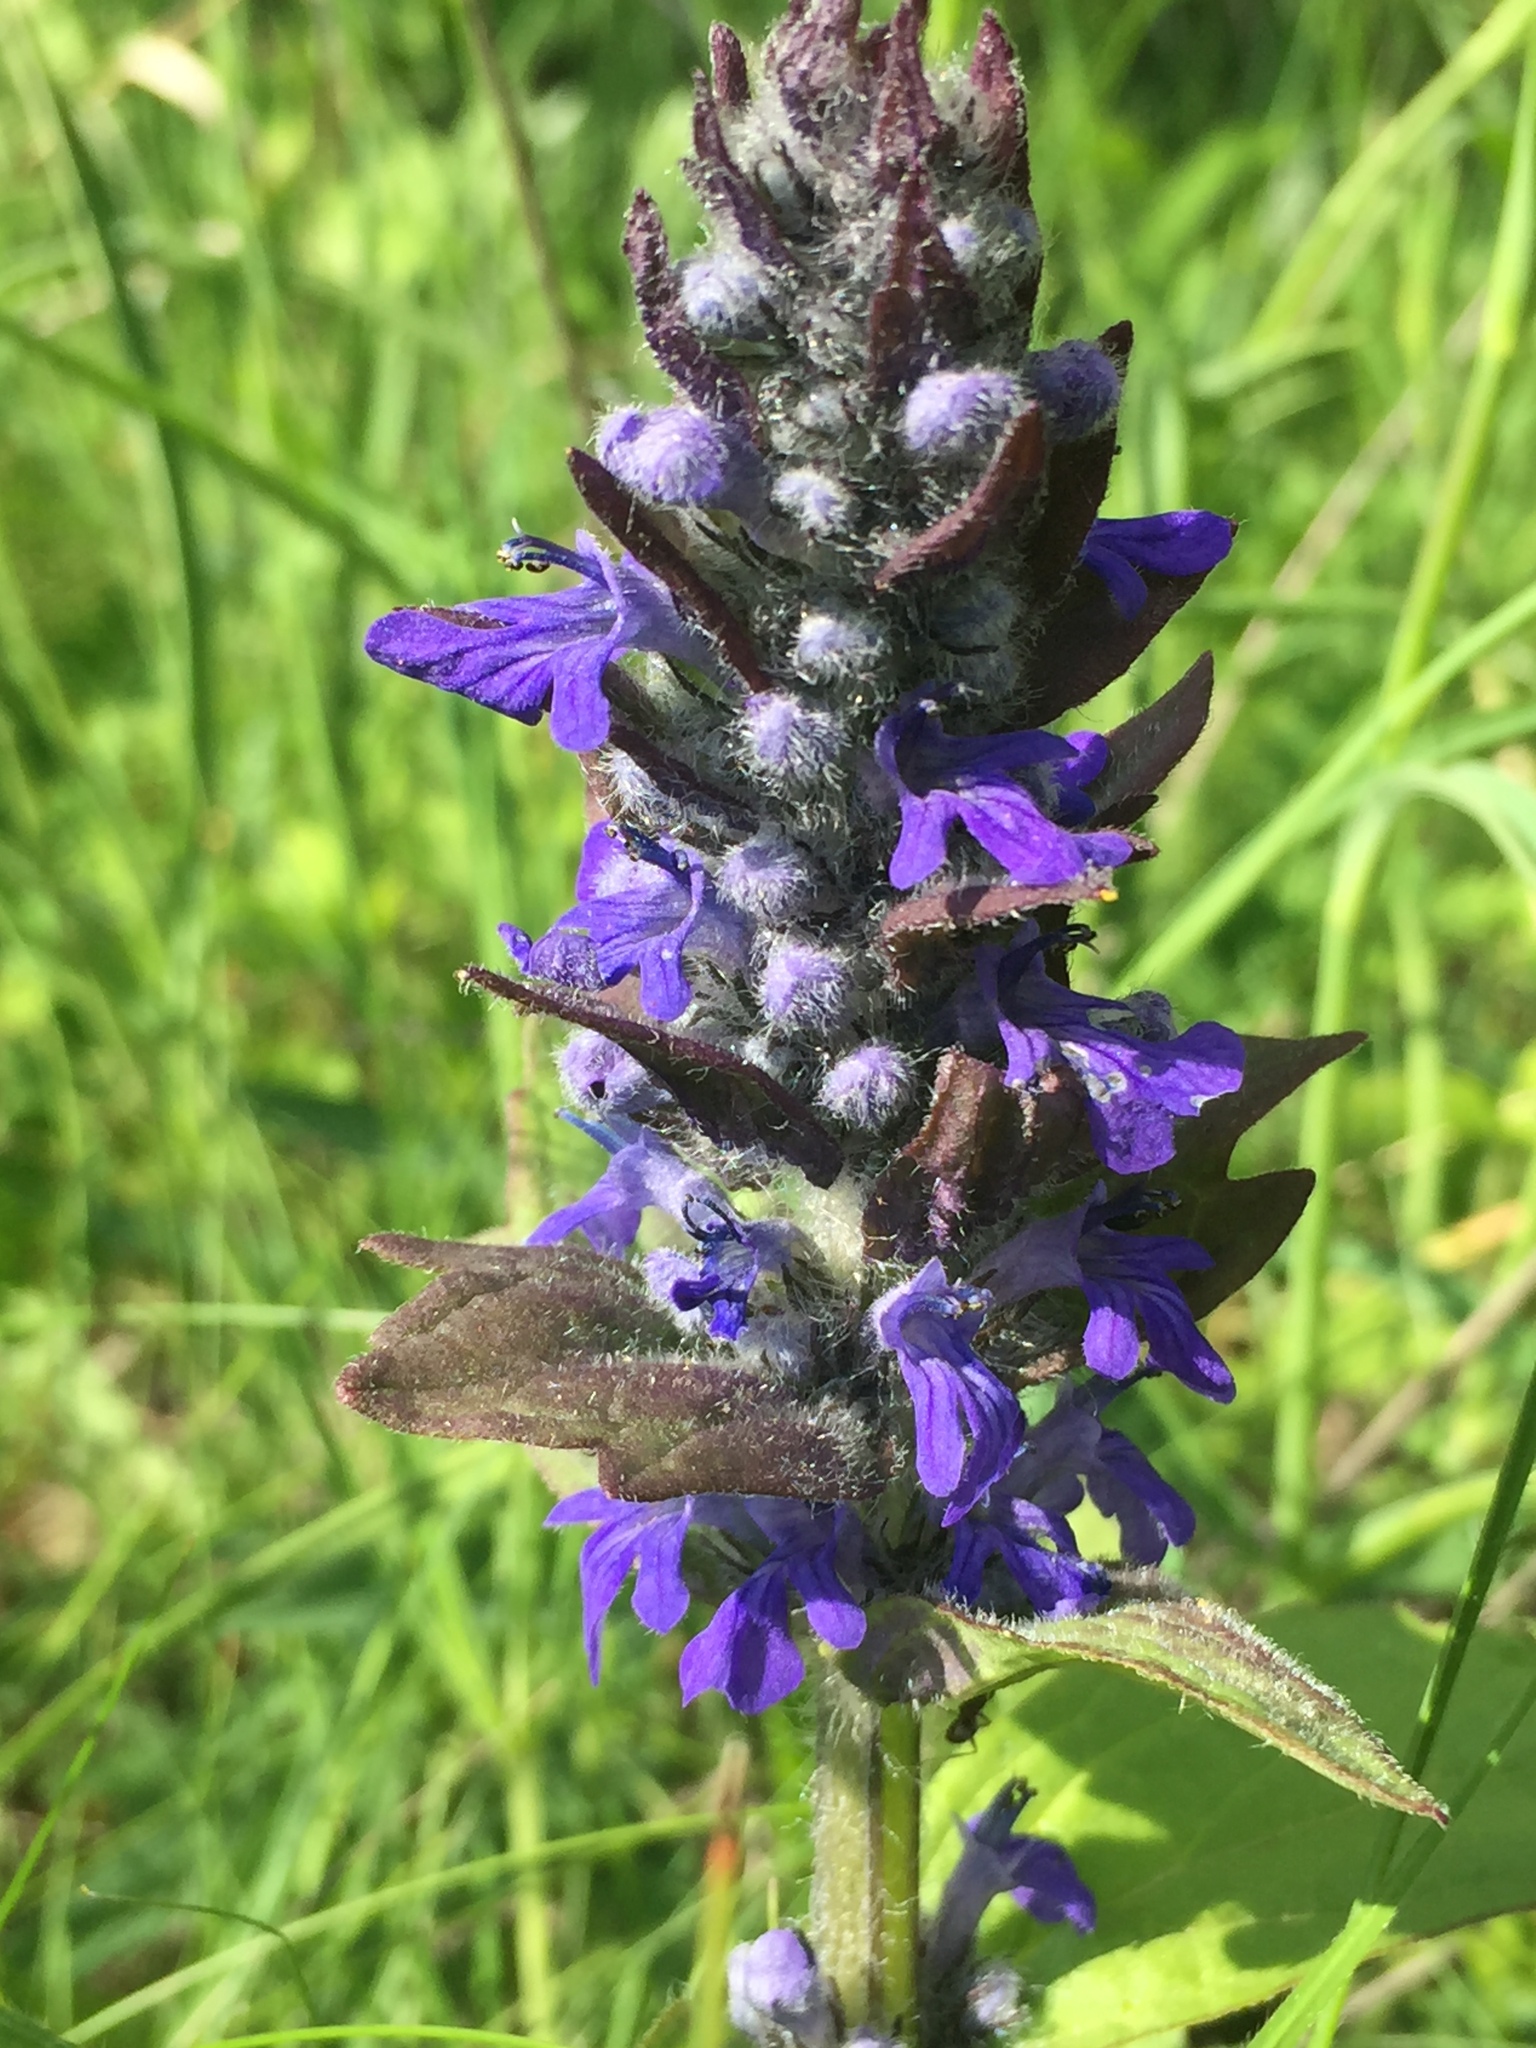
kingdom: Plantae
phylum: Tracheophyta
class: Magnoliopsida
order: Lamiales
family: Lamiaceae
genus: Ajuga
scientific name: Ajuga genevensis
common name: Blue bugle
